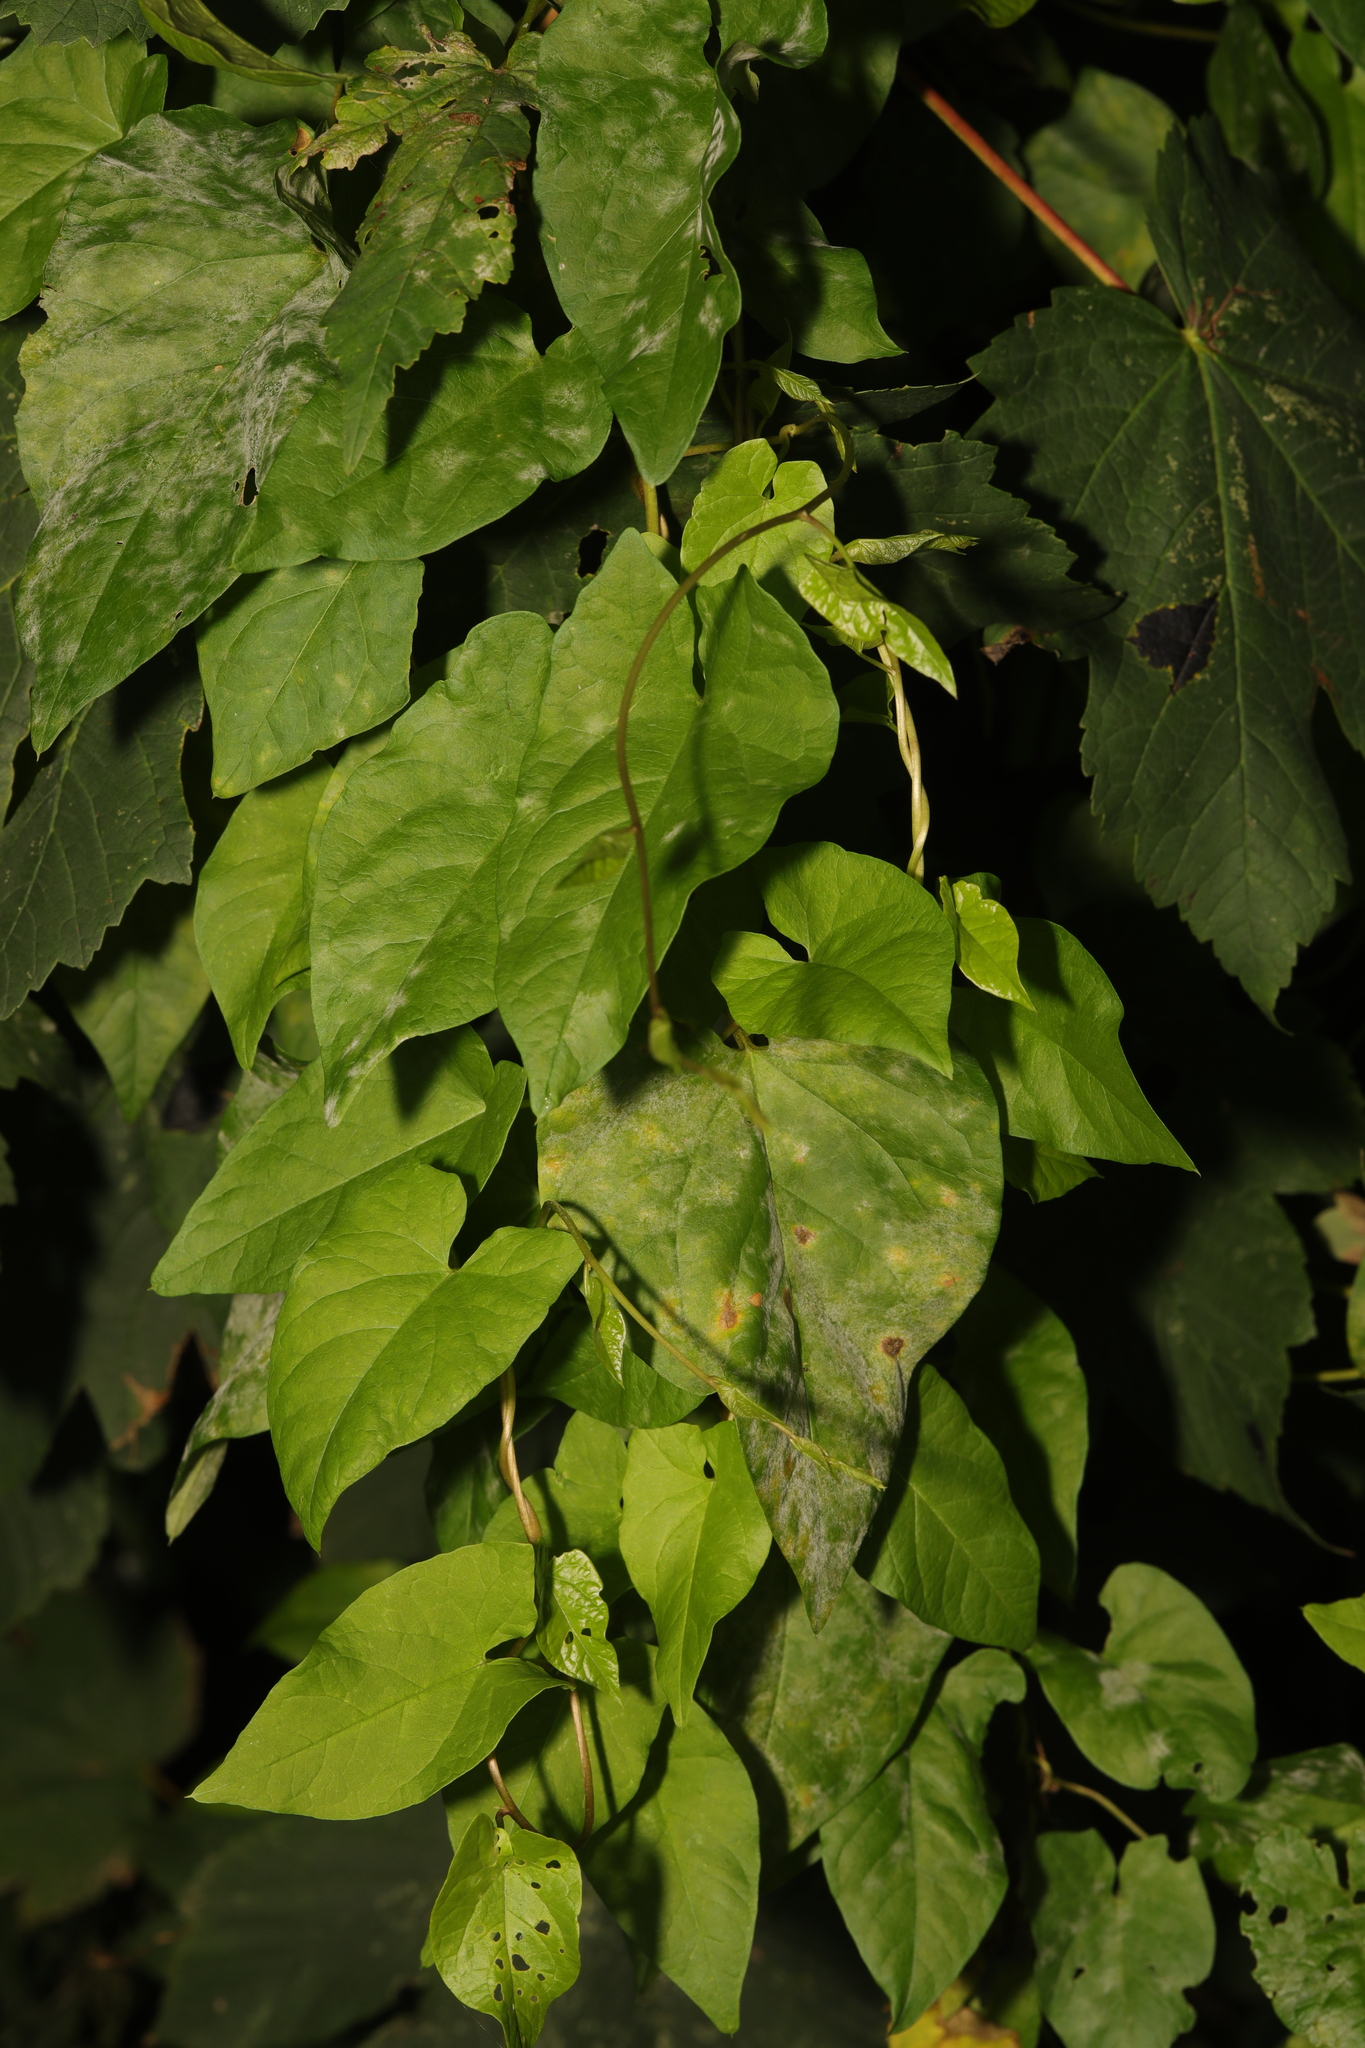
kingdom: Plantae
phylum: Tracheophyta
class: Magnoliopsida
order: Solanales
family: Convolvulaceae
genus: Calystegia
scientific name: Calystegia
